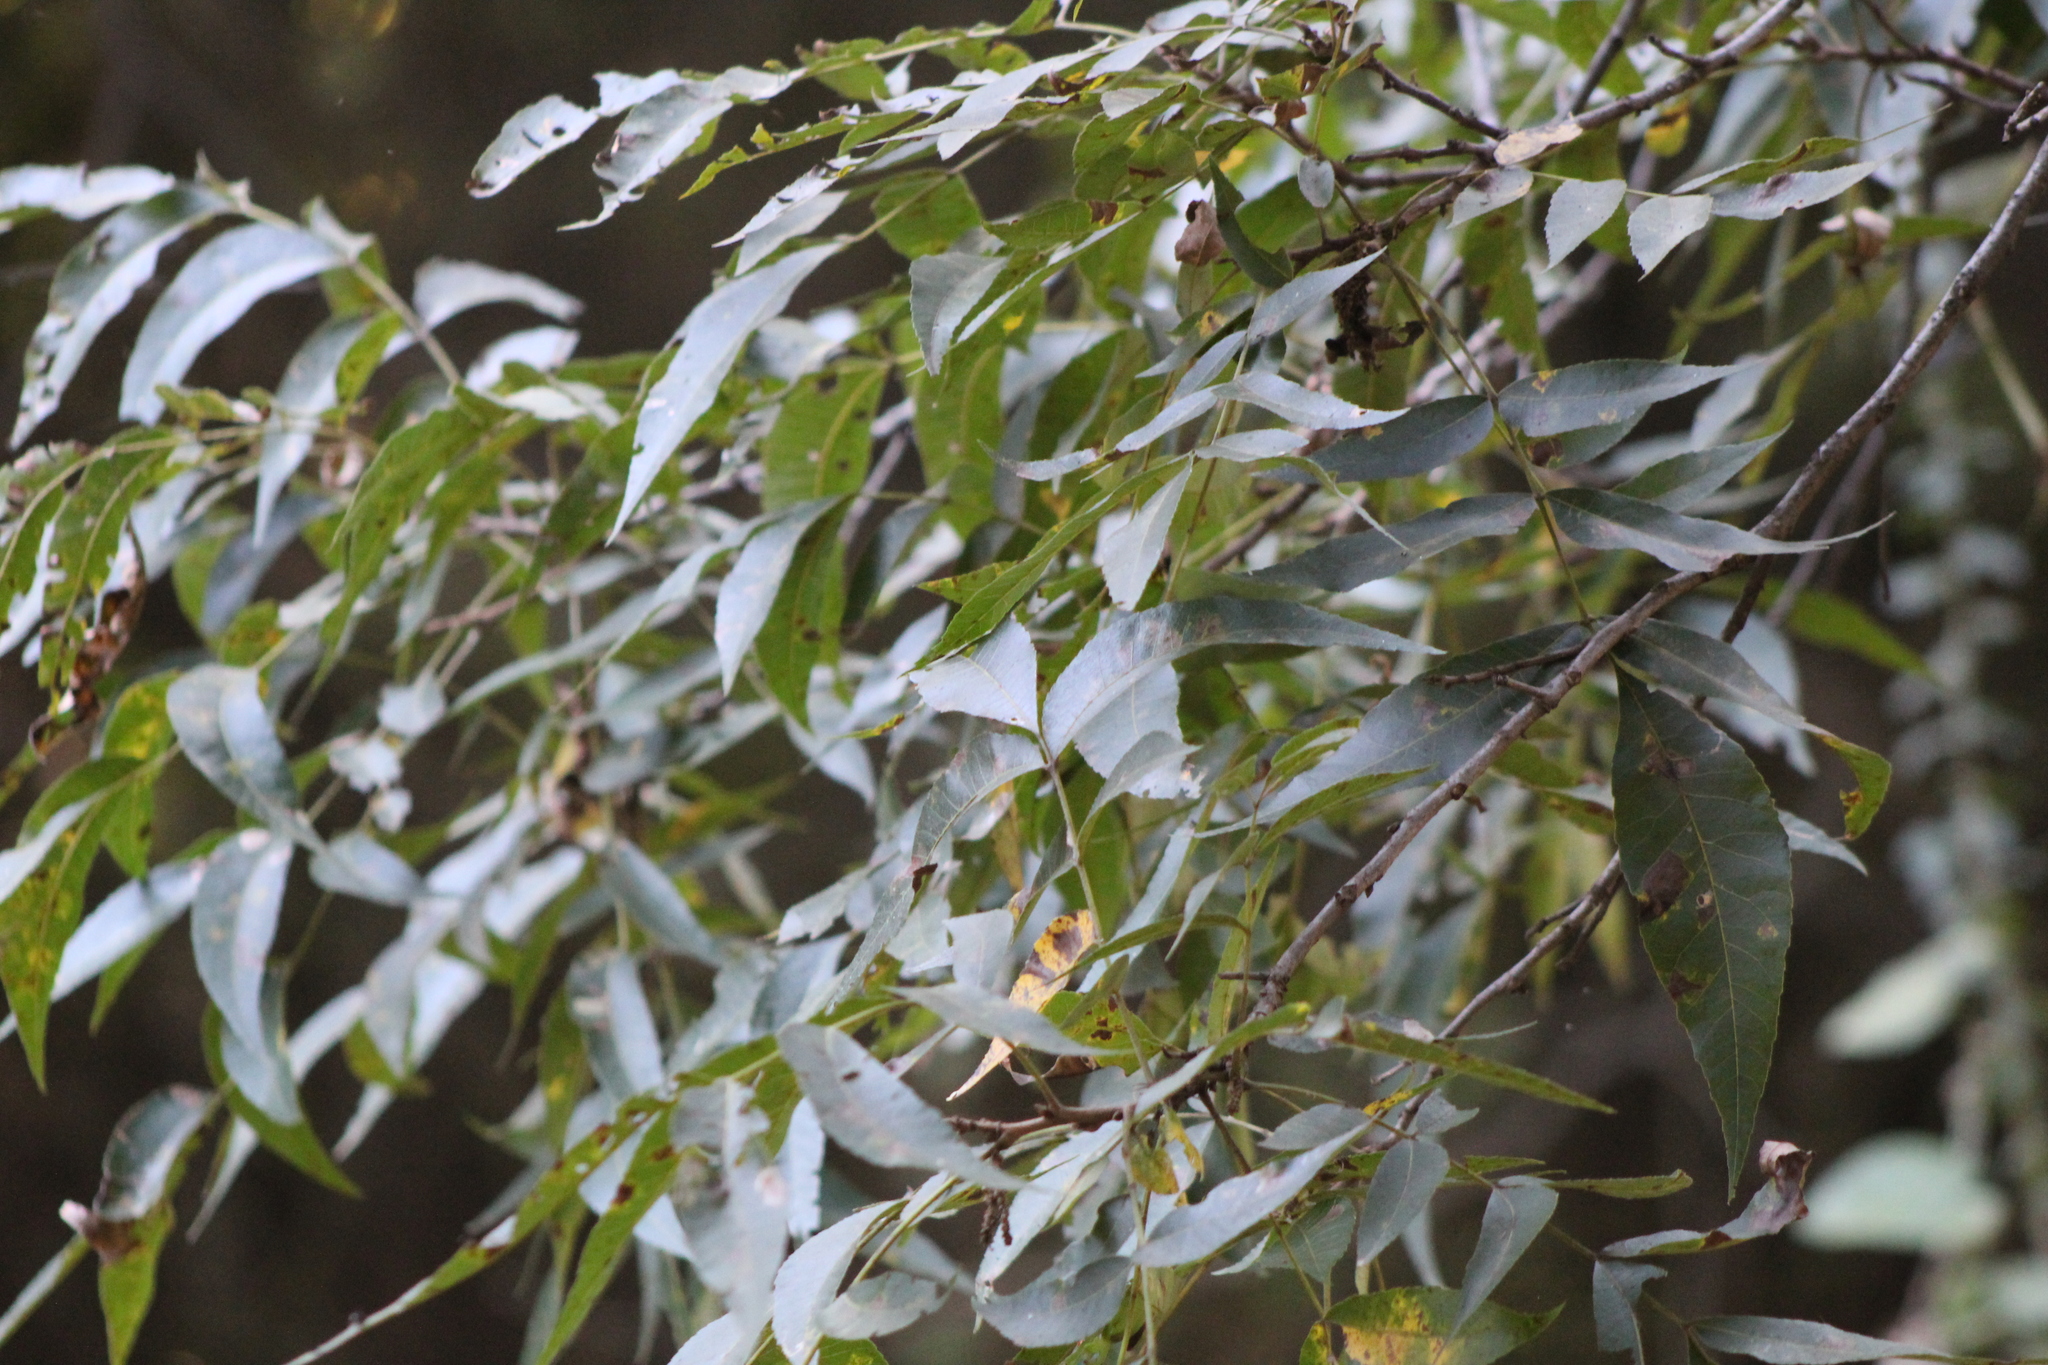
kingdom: Plantae
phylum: Tracheophyta
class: Magnoliopsida
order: Fagales
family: Juglandaceae
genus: Carya
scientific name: Carya illinoinensis
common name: Pecan
